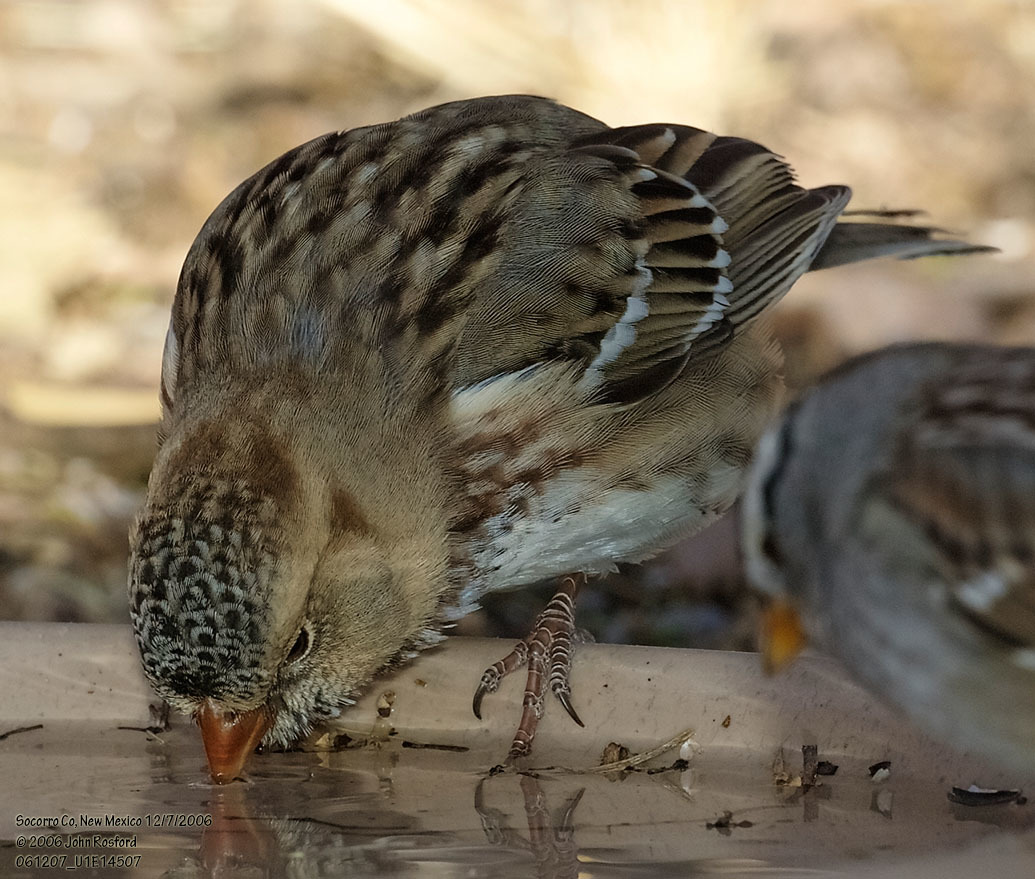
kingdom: Animalia
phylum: Chordata
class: Aves
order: Passeriformes
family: Passerellidae
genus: Zonotrichia
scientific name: Zonotrichia querula
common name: Harris's sparrow
